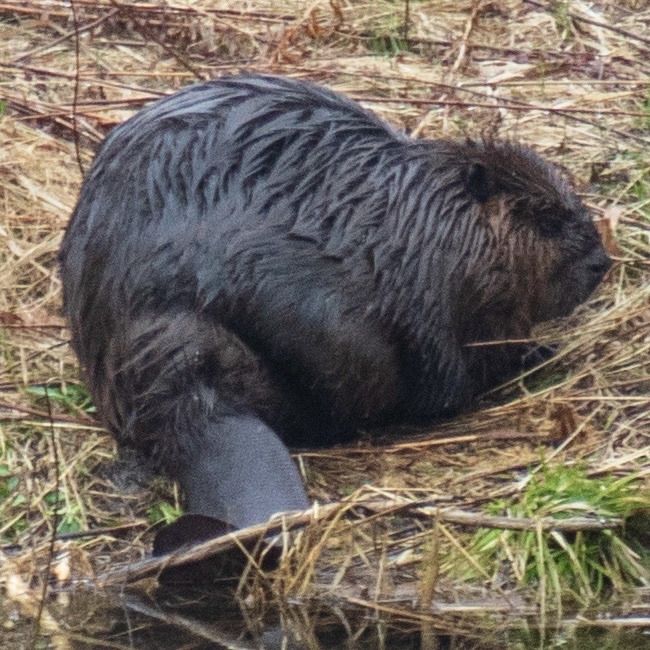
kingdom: Animalia
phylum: Chordata
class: Mammalia
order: Rodentia
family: Castoridae
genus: Castor
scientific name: Castor canadensis
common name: American beaver
